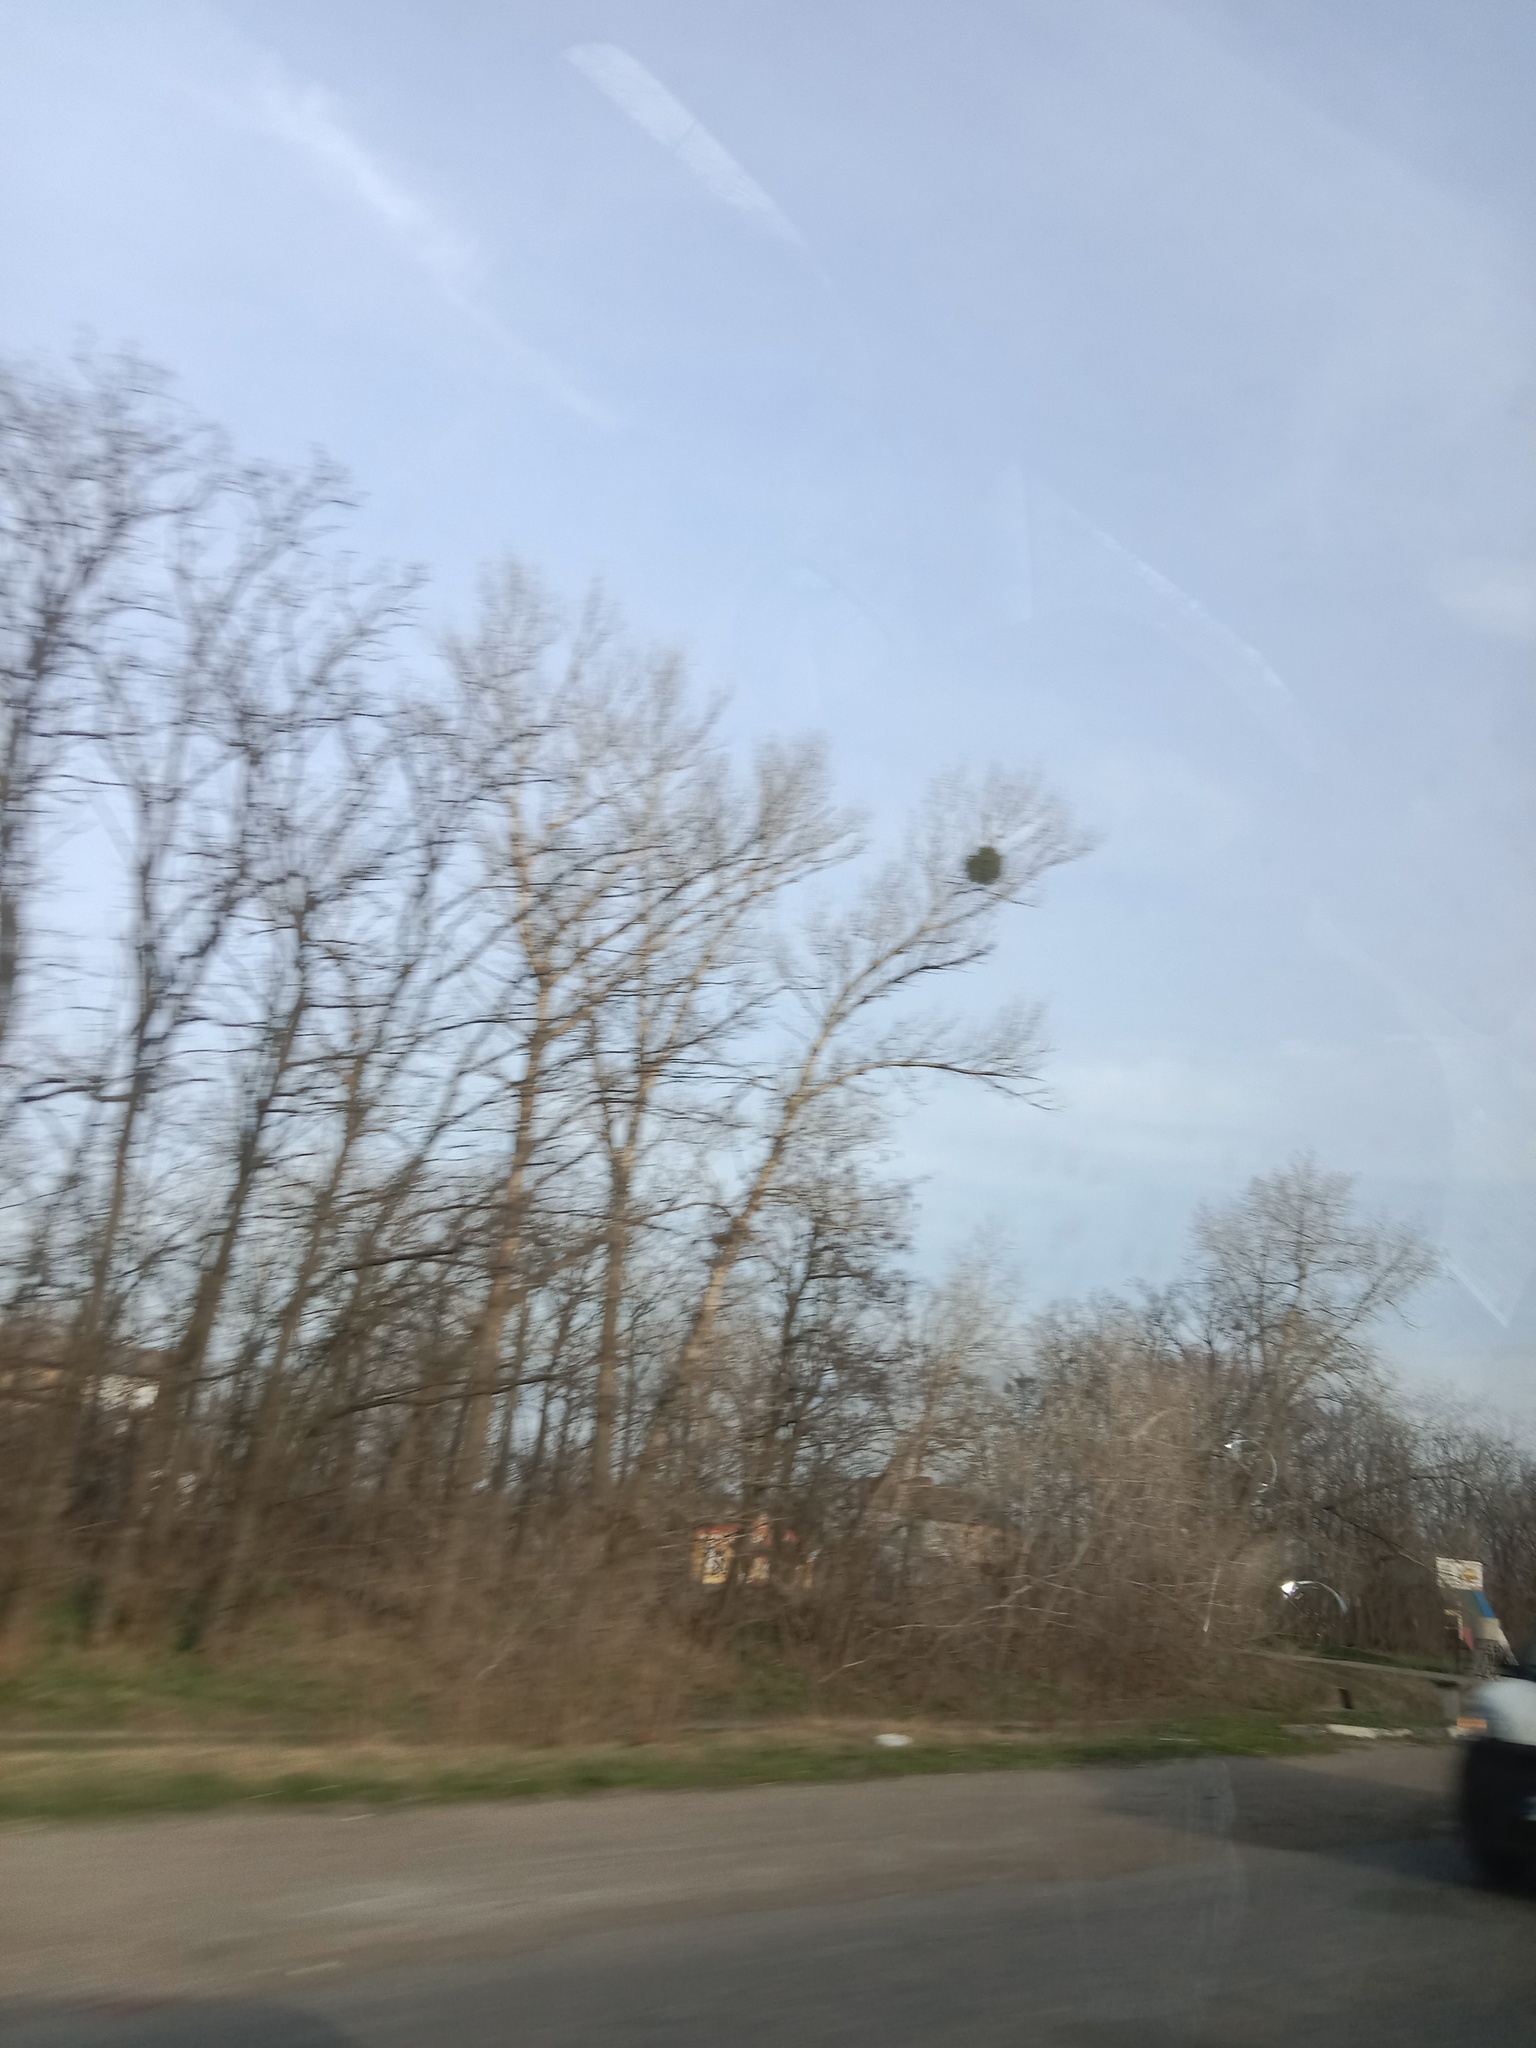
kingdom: Plantae
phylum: Tracheophyta
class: Magnoliopsida
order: Santalales
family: Viscaceae
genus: Viscum
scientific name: Viscum album
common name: Mistletoe
